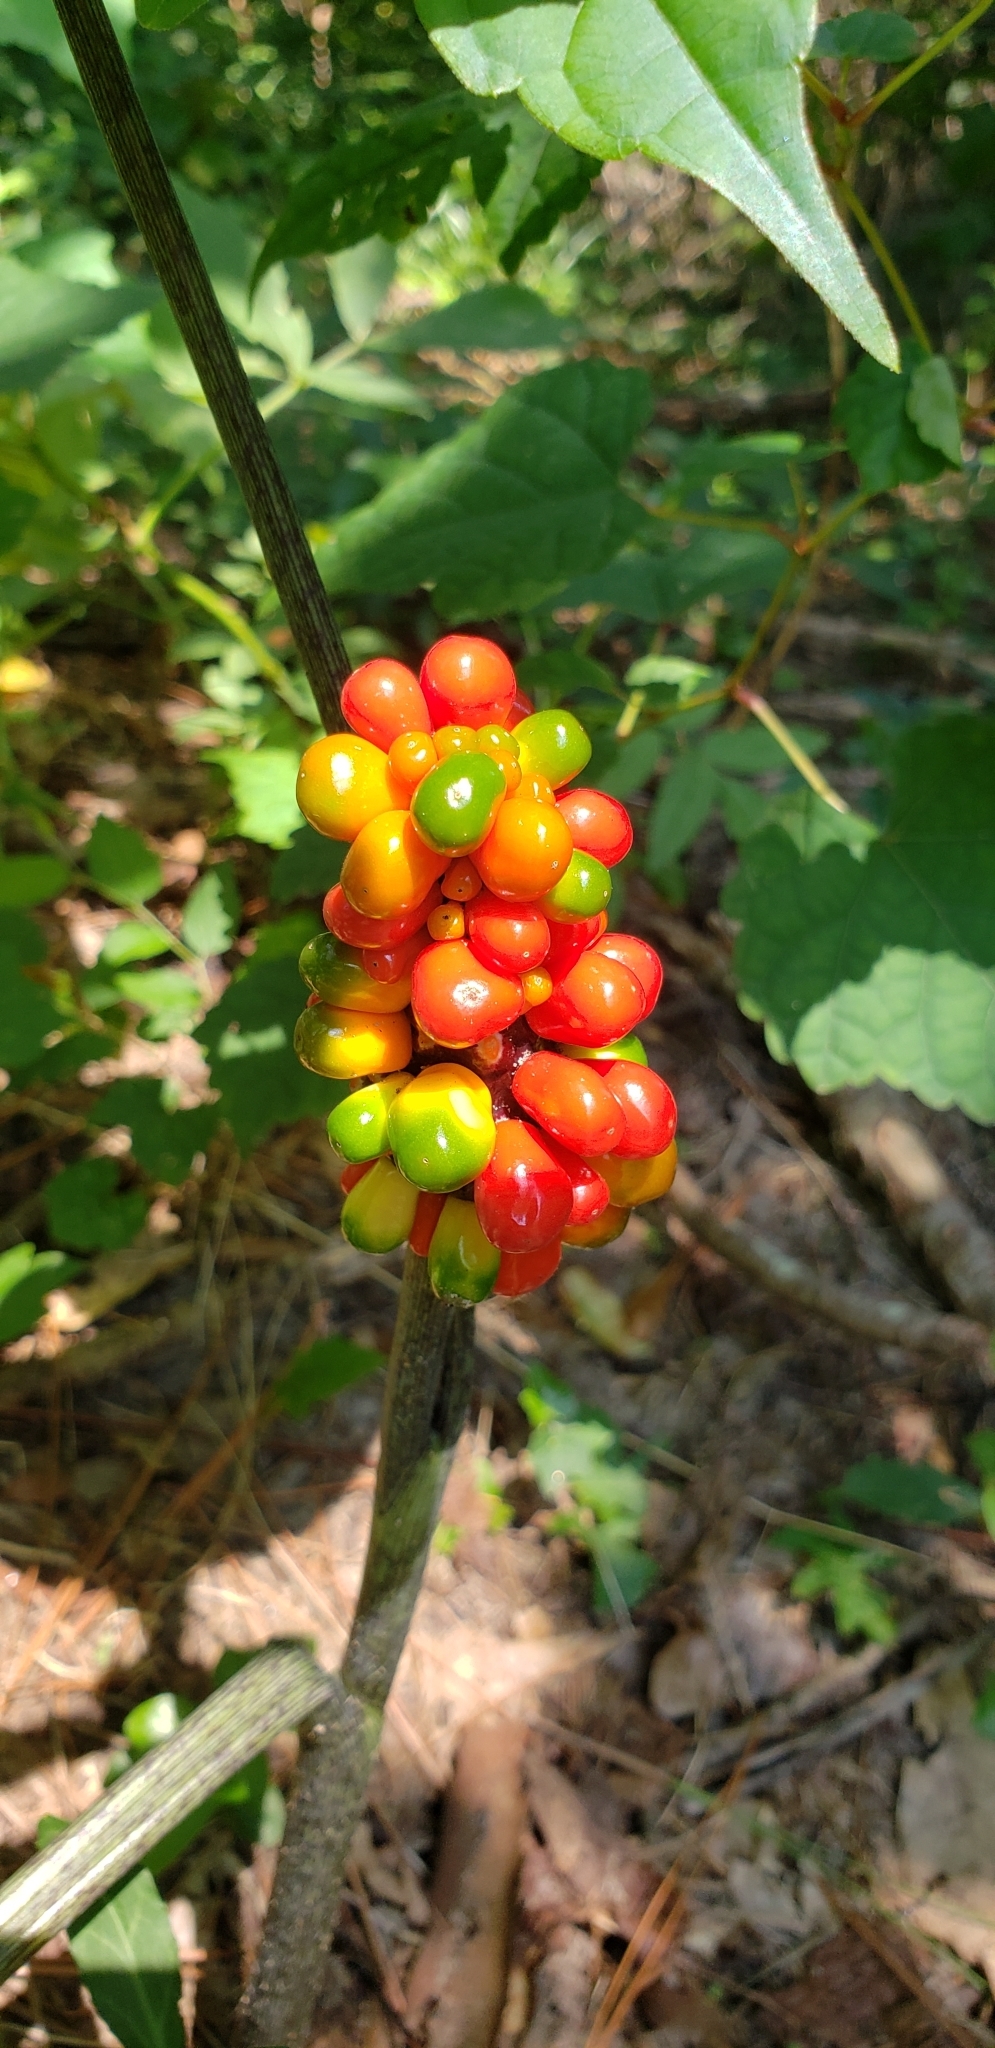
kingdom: Plantae
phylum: Tracheophyta
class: Liliopsida
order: Alismatales
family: Araceae
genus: Arisaema
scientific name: Arisaema triphyllum
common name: Jack-in-the-pulpit
